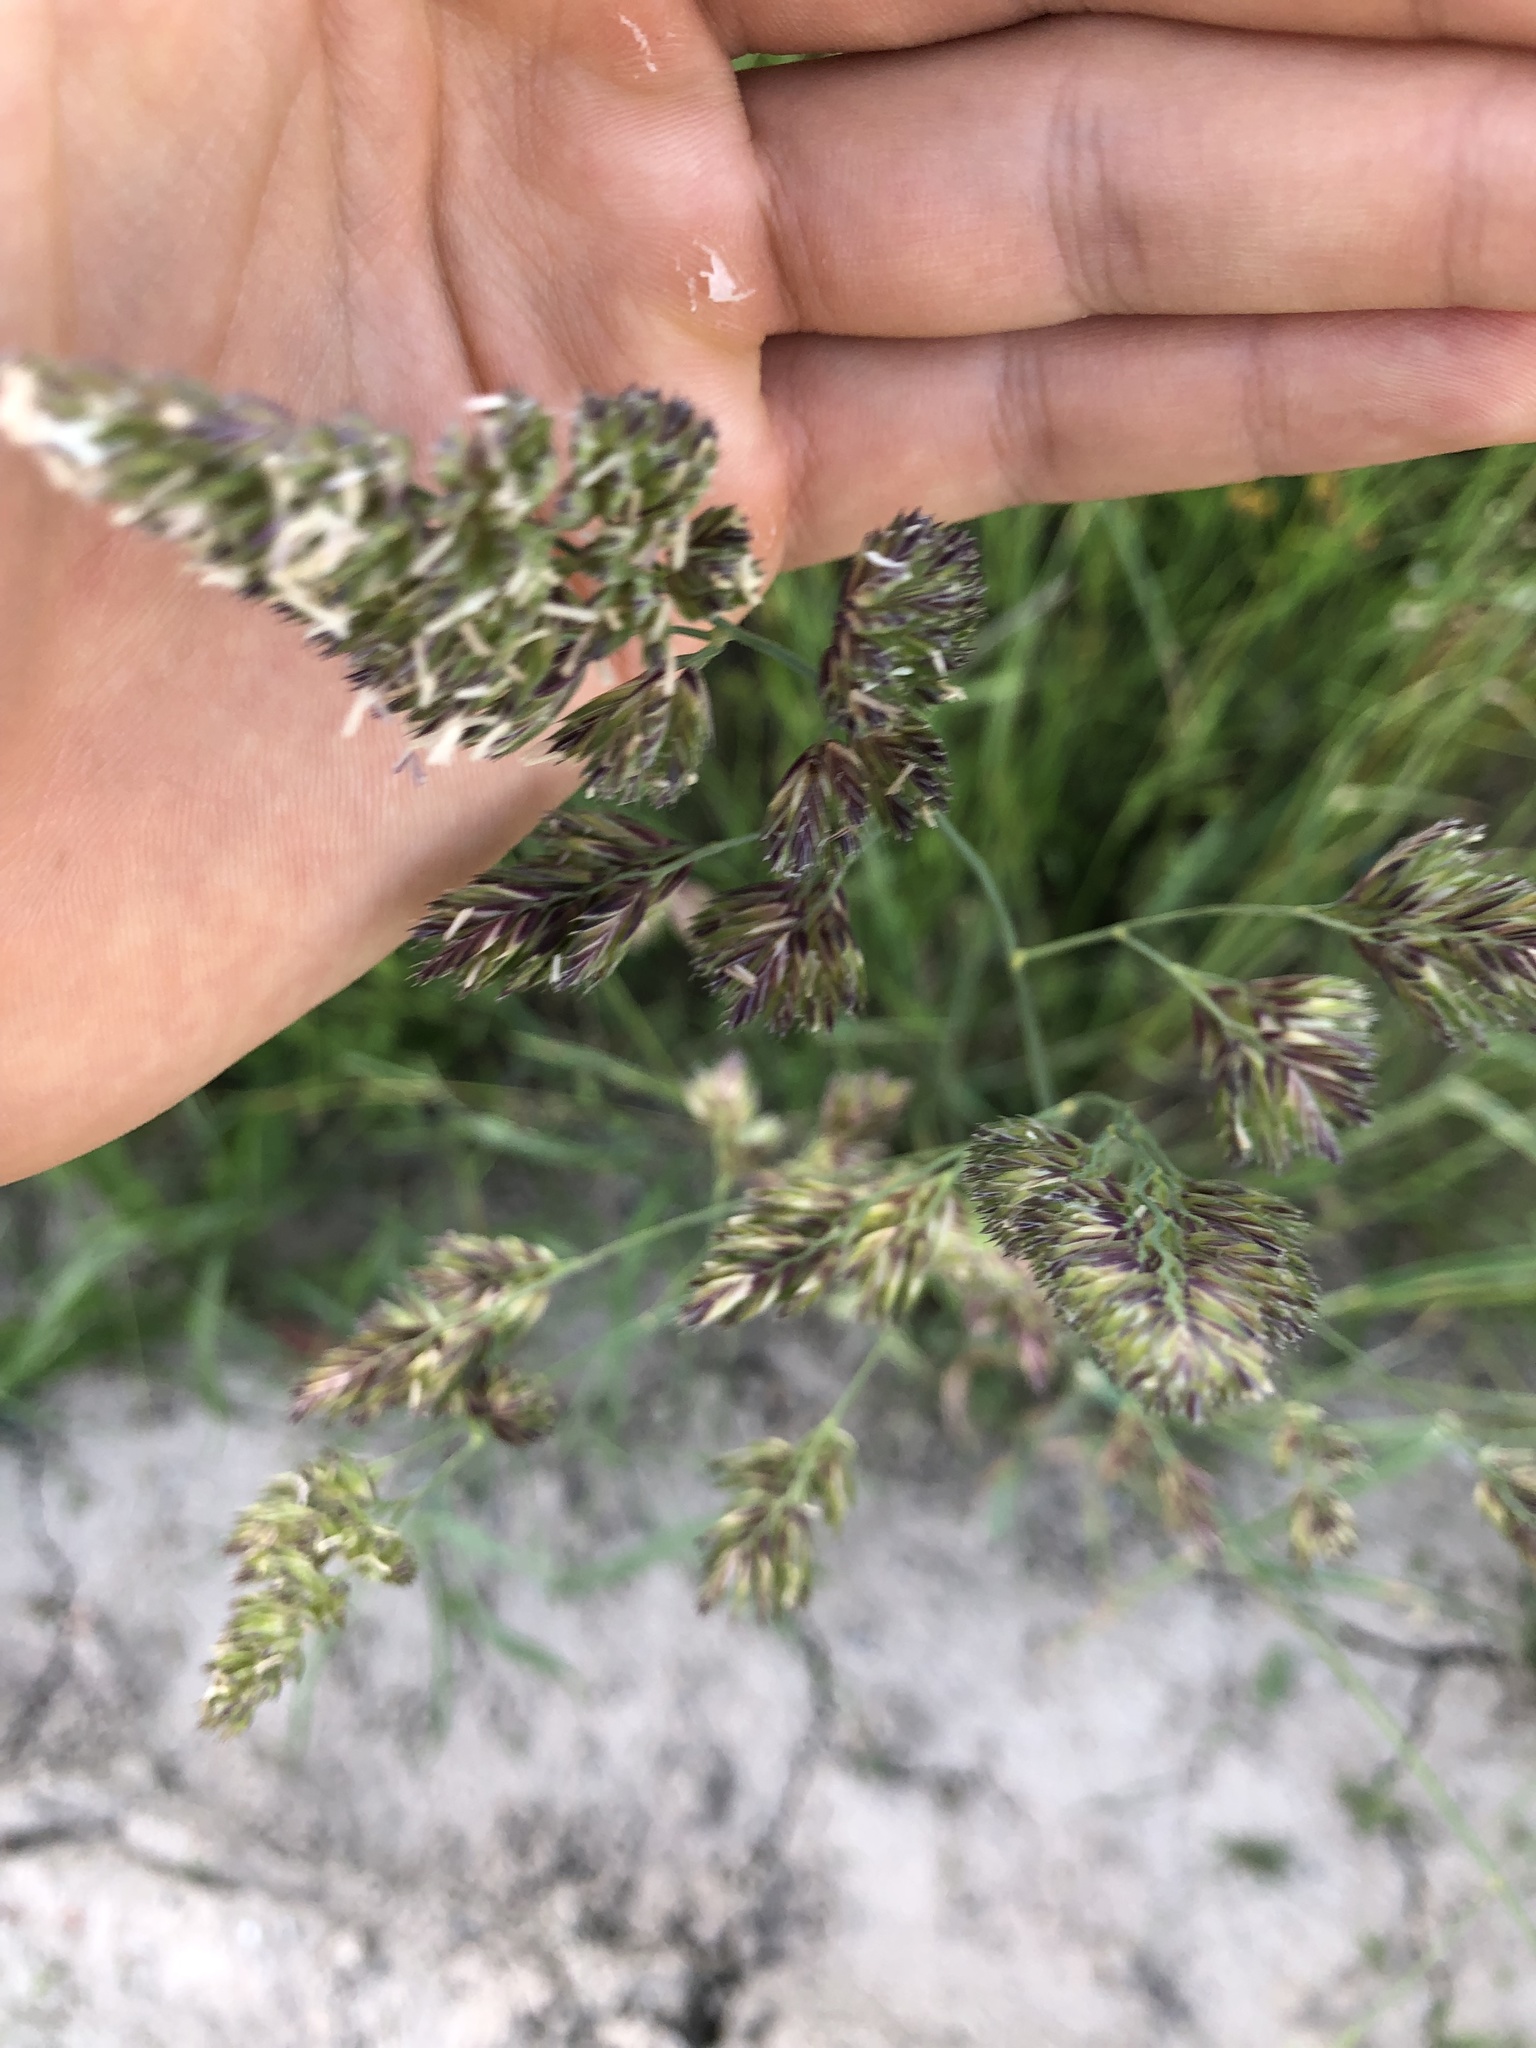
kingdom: Plantae
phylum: Tracheophyta
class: Liliopsida
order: Poales
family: Poaceae
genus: Dactylis
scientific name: Dactylis glomerata
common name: Orchardgrass
